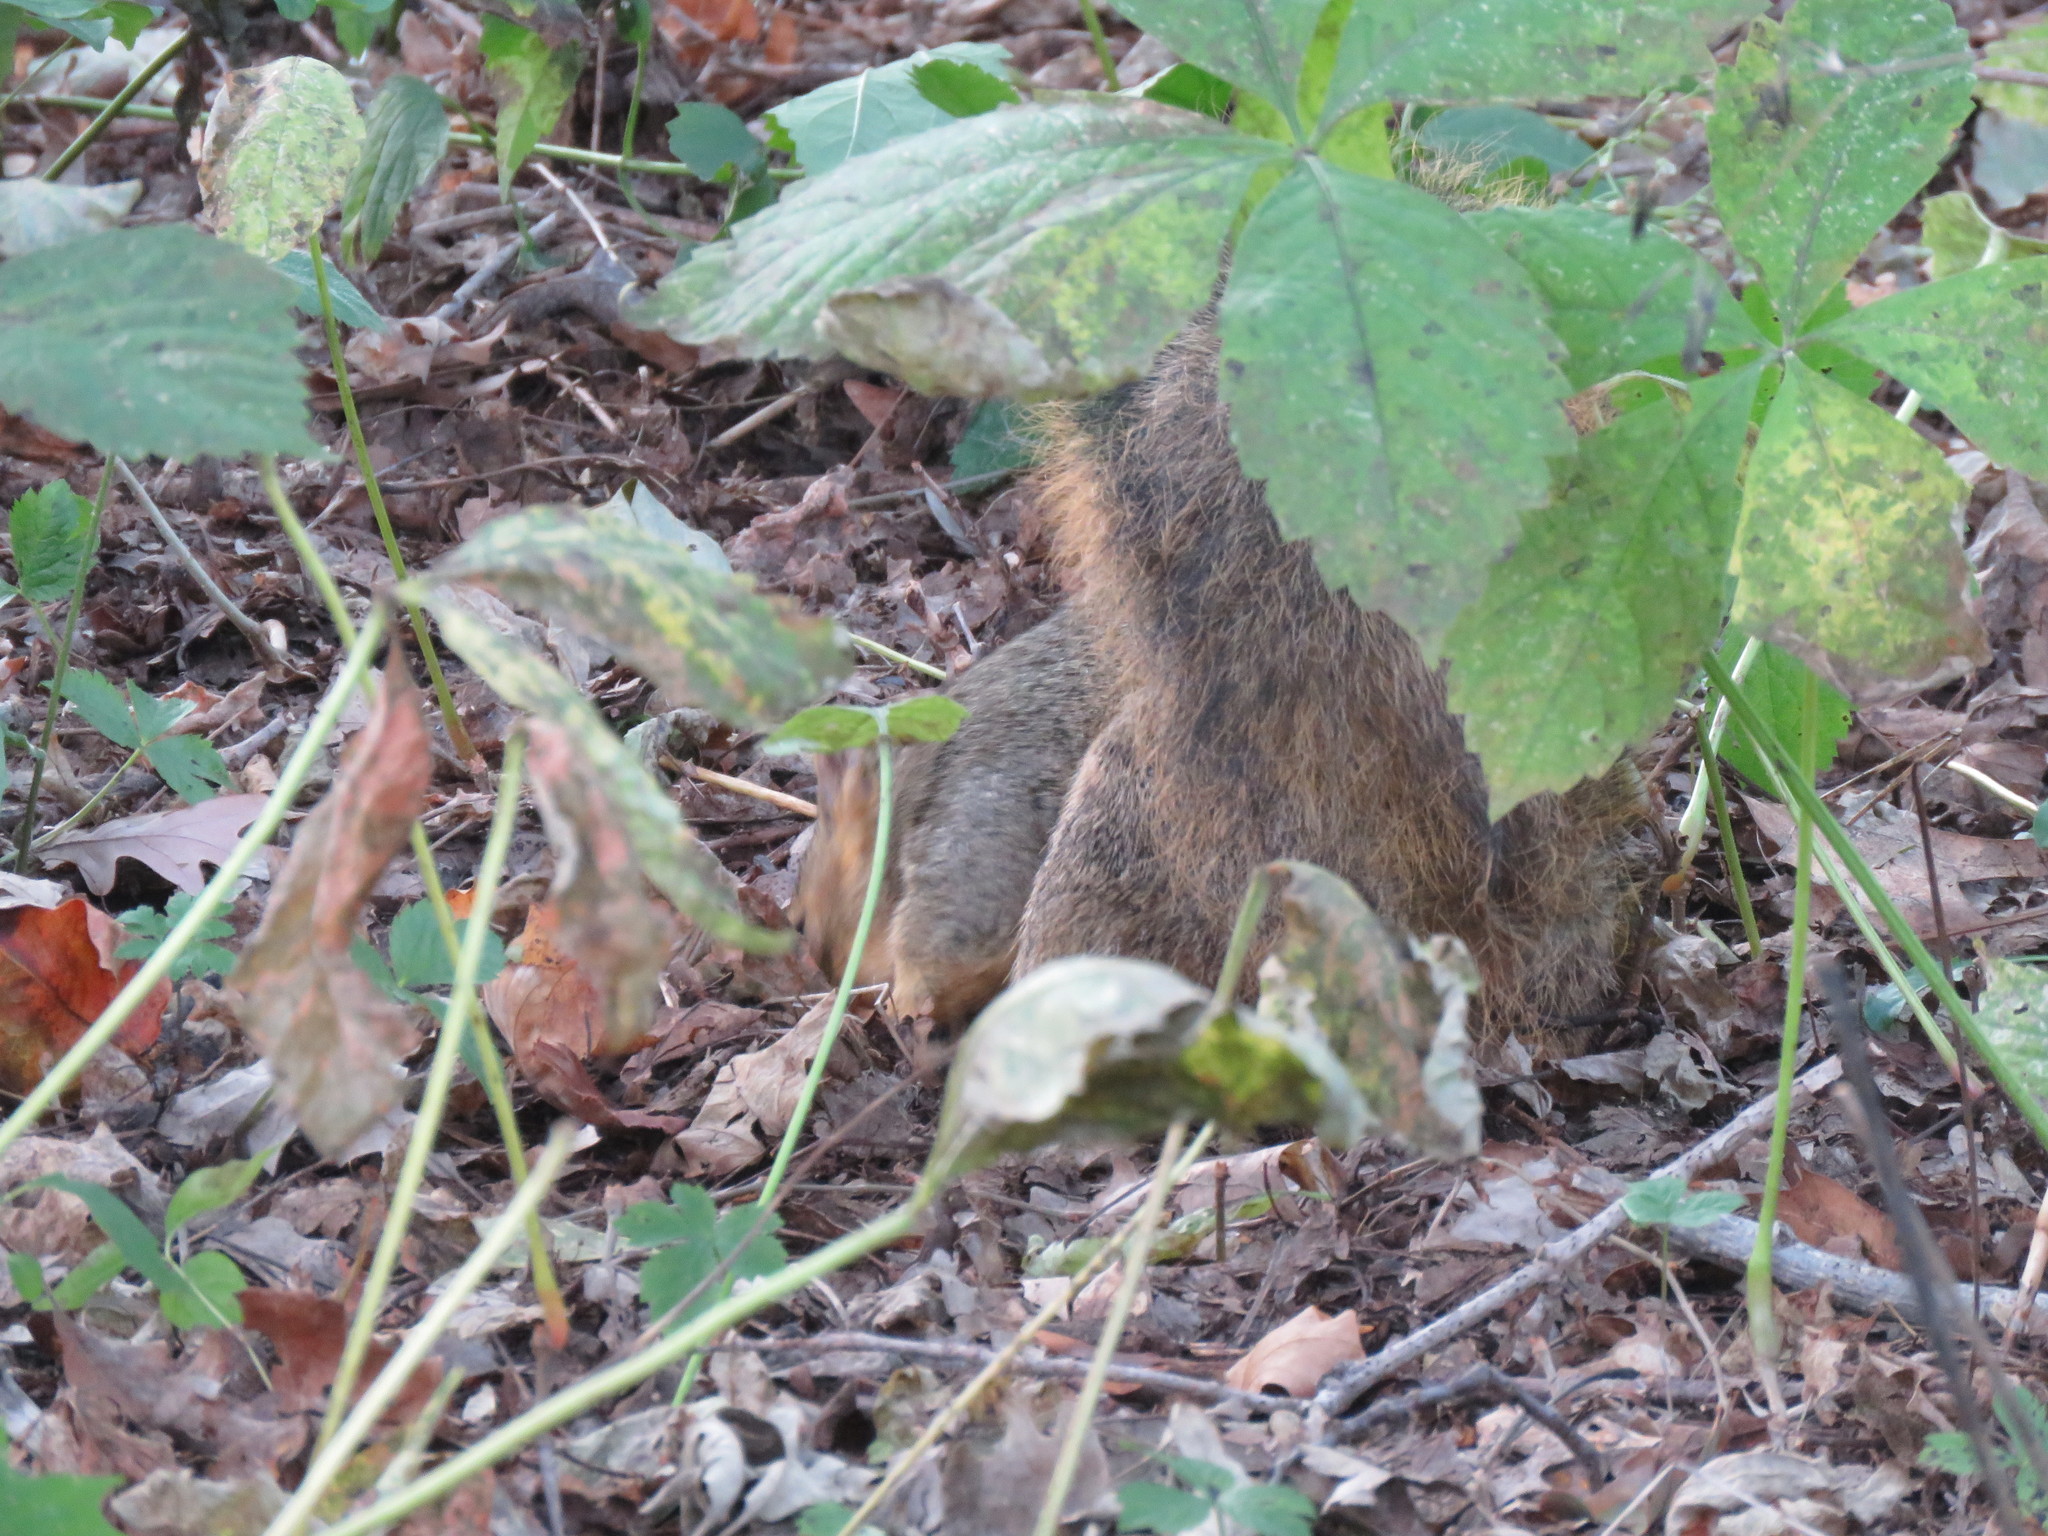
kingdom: Animalia
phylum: Chordata
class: Mammalia
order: Rodentia
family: Sciuridae
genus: Sciurus
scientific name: Sciurus niger
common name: Fox squirrel
